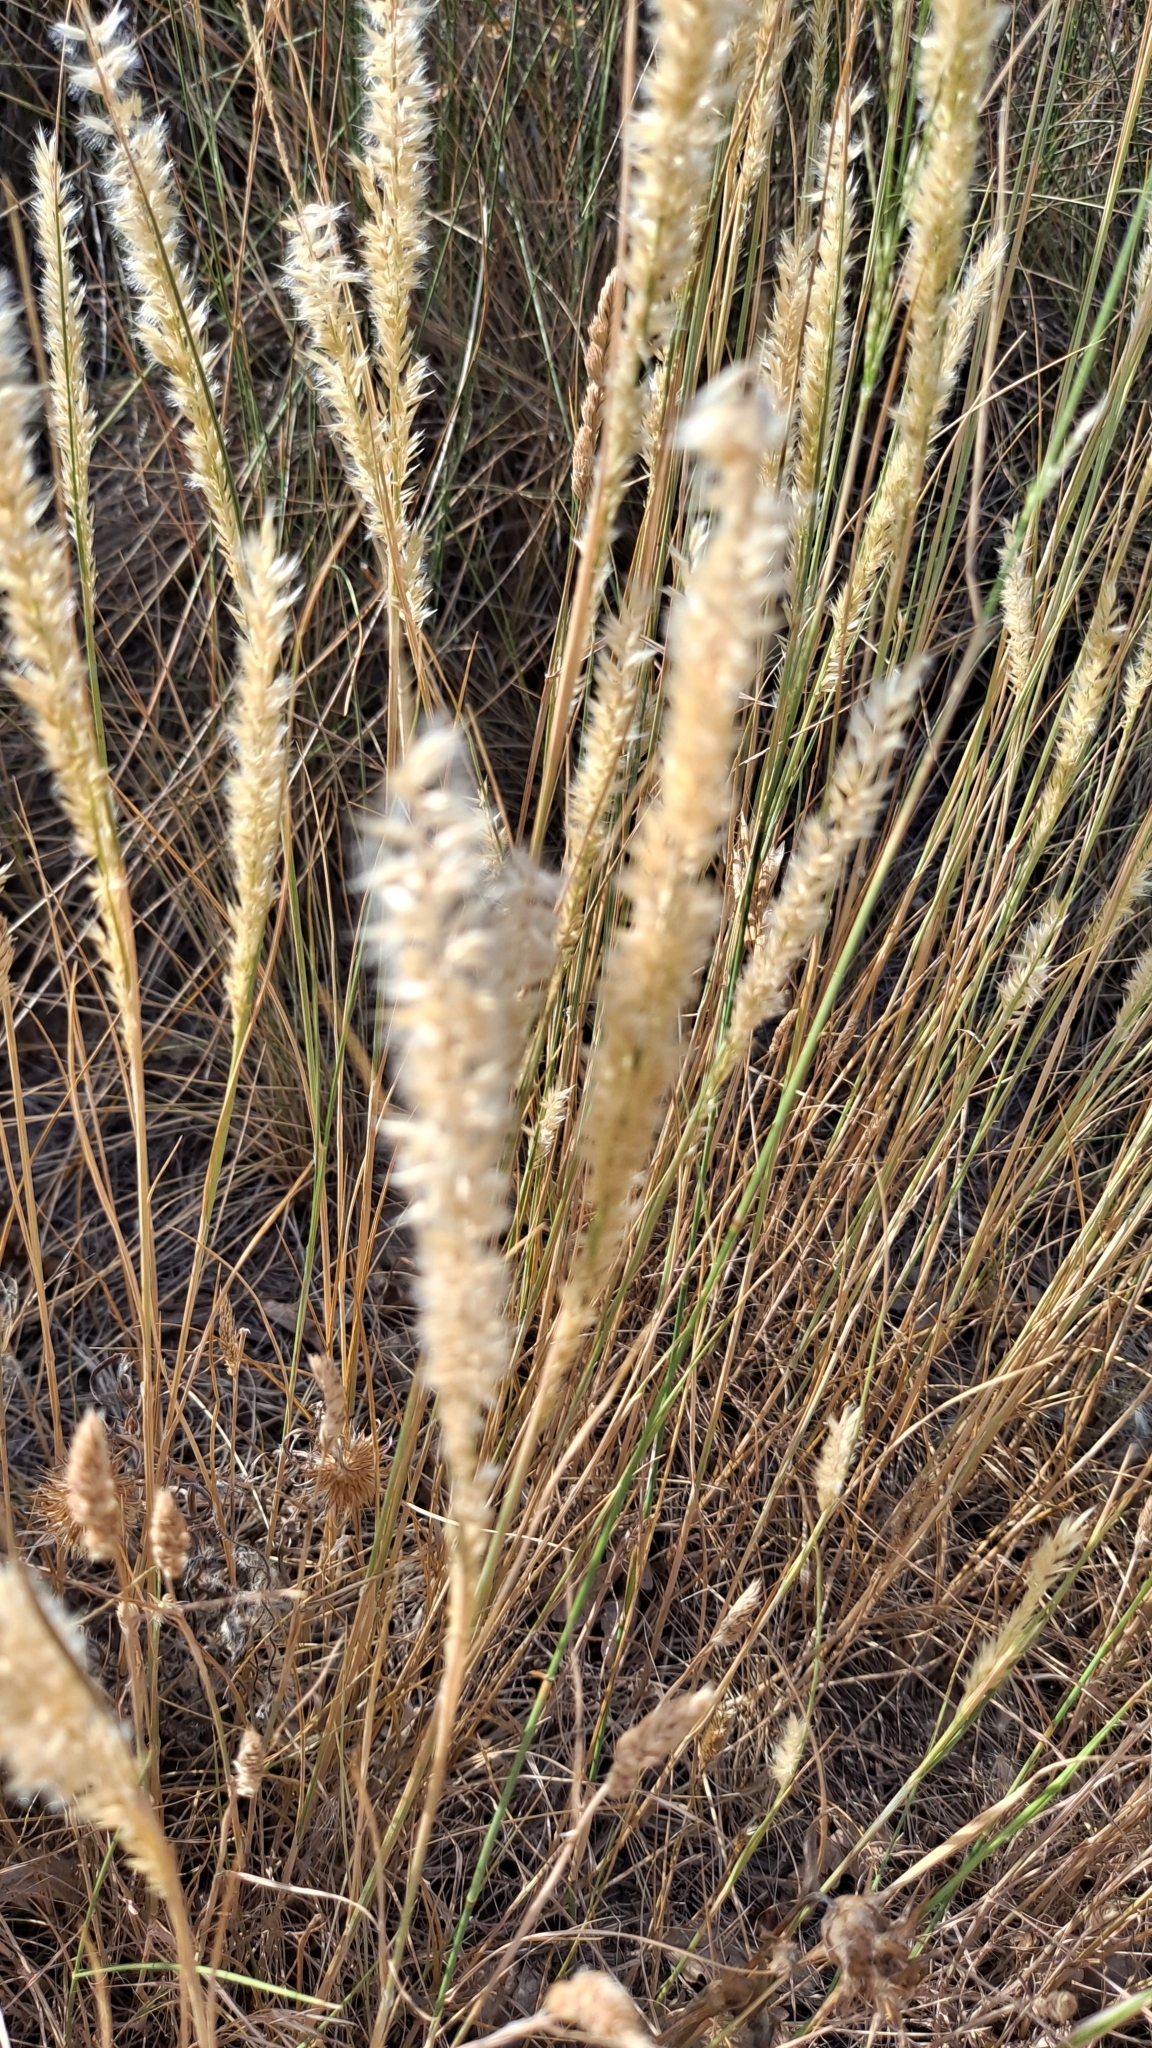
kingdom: Plantae
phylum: Tracheophyta
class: Liliopsida
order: Poales
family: Poaceae
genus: Melica
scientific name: Melica ciliata
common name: Hairy melicgrass
